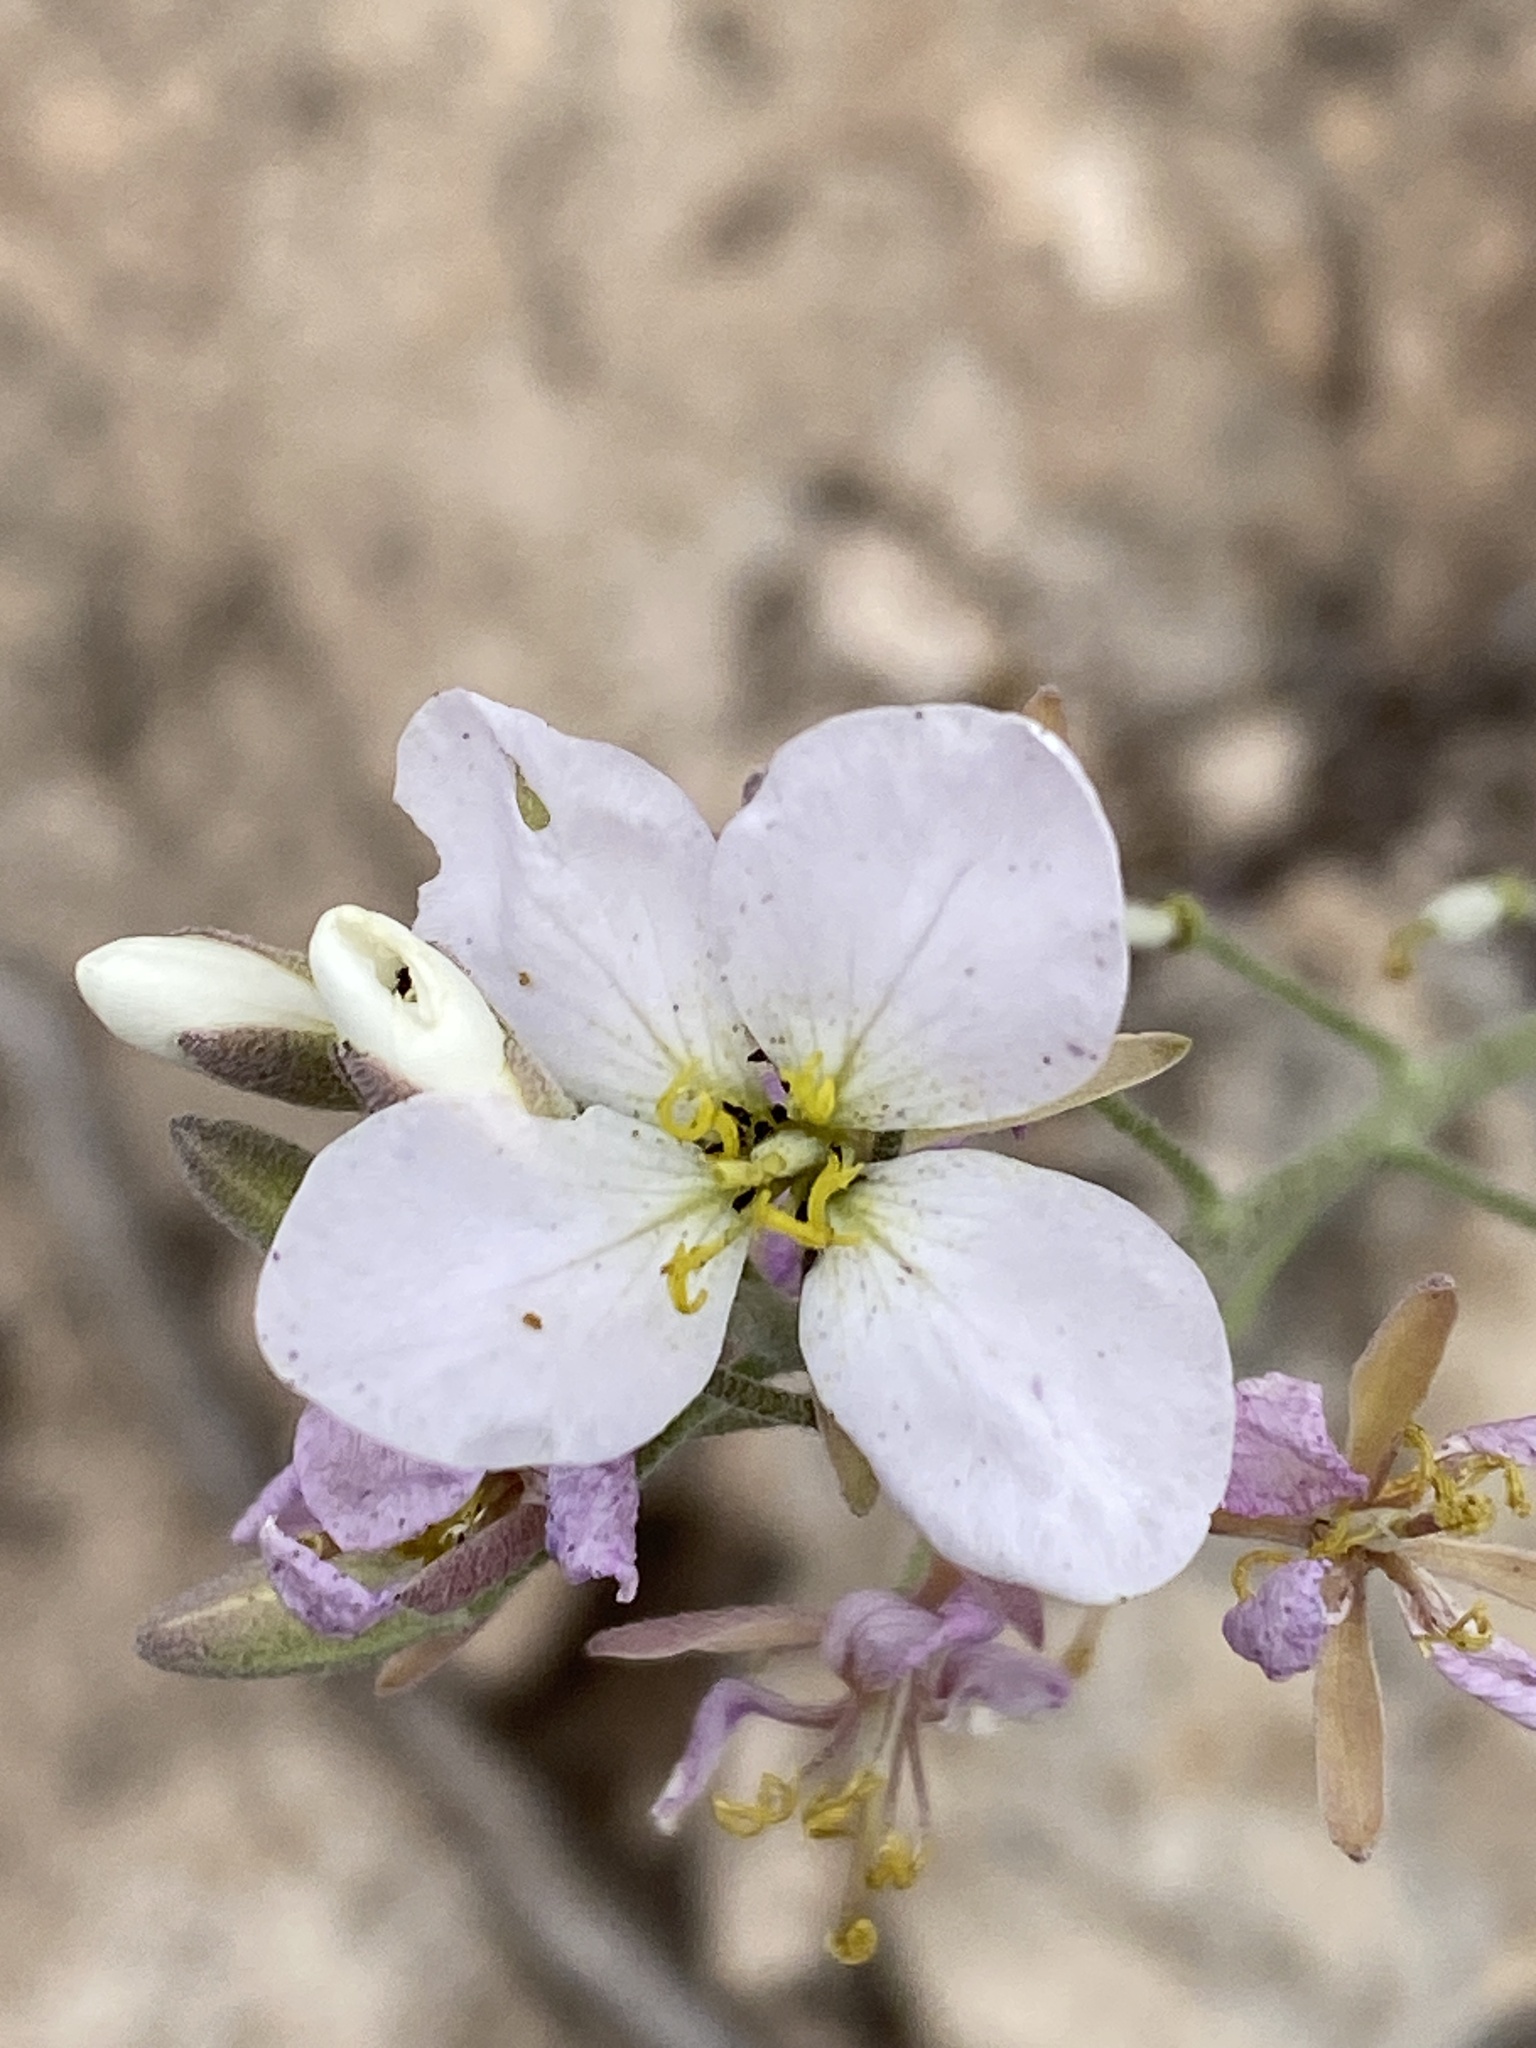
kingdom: Plantae
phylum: Tracheophyta
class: Magnoliopsida
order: Brassicales
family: Brassicaceae
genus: Nerisyrenia
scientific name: Nerisyrenia camporum
